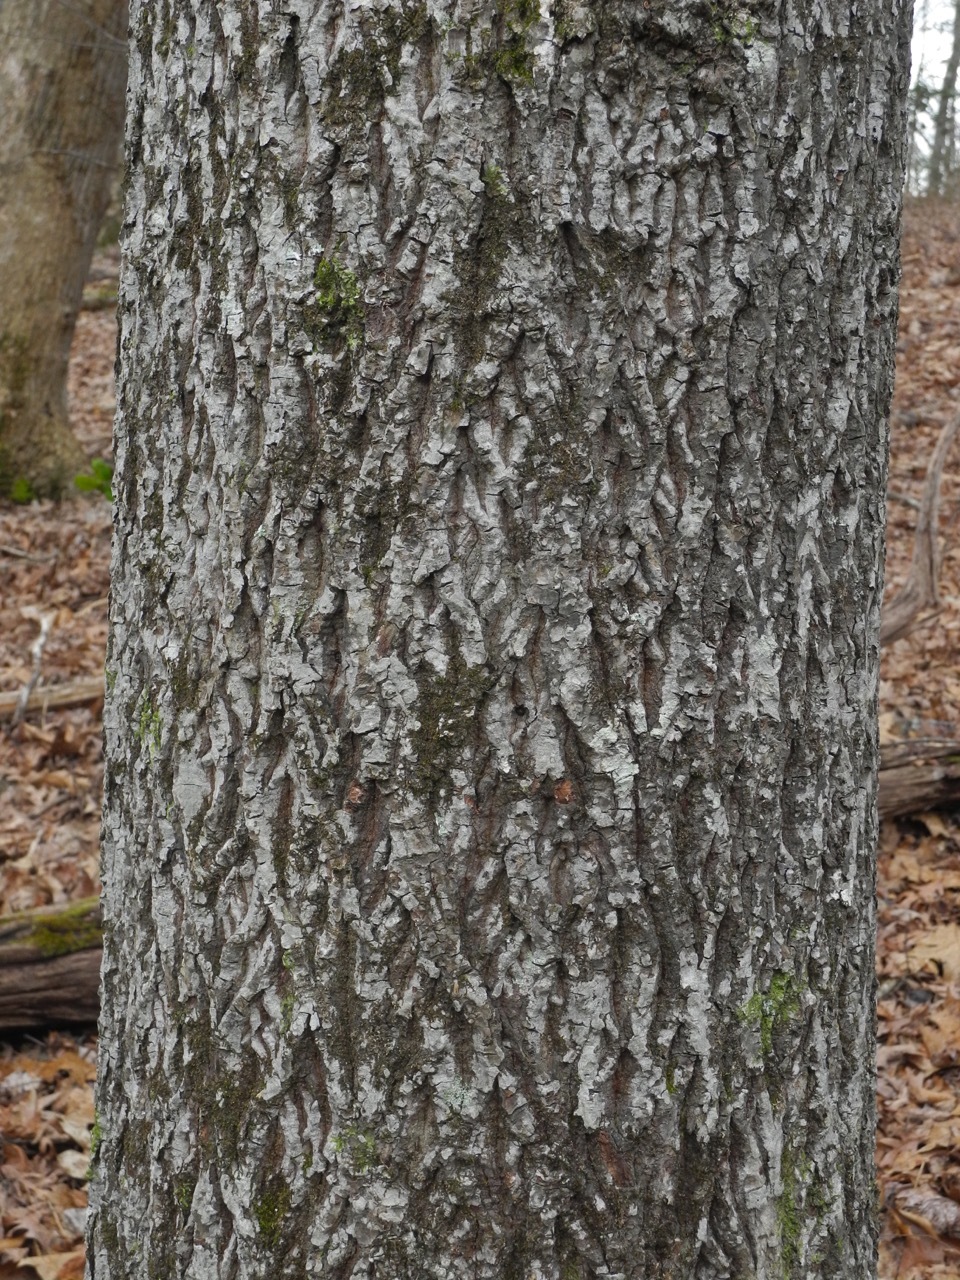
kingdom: Plantae
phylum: Tracheophyta
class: Magnoliopsida
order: Fagales
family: Juglandaceae
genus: Carya
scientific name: Carya glabra
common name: Pignut hickory
